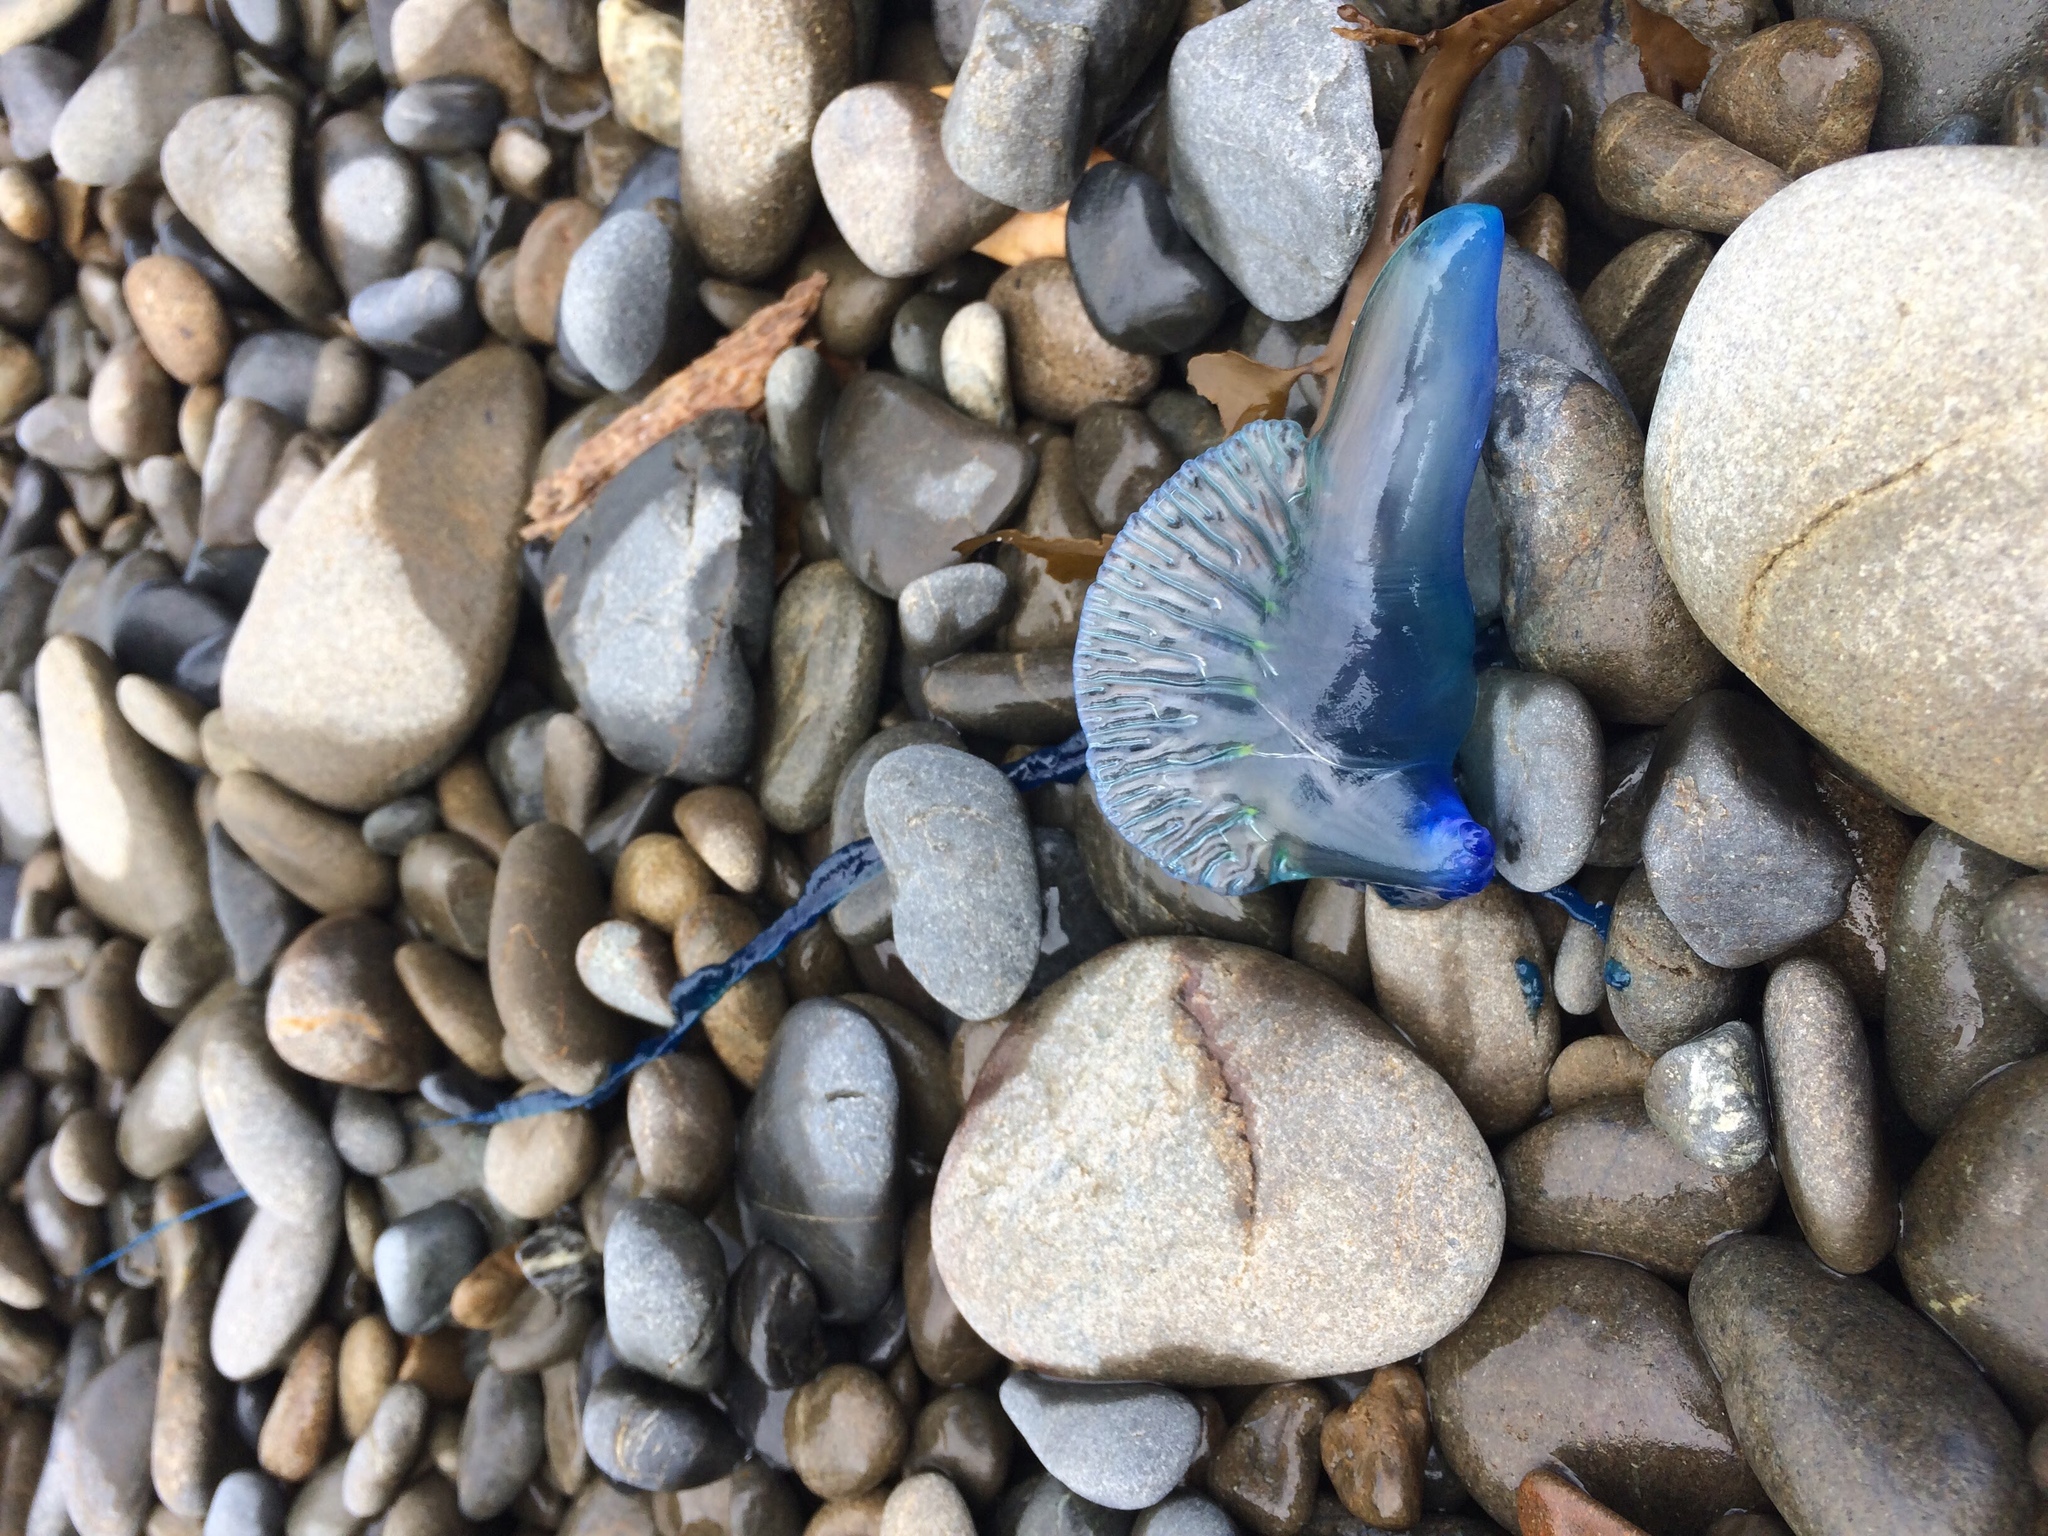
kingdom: Animalia
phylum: Cnidaria
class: Hydrozoa
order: Siphonophorae
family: Physaliidae
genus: Physalia
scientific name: Physalia physalis
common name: Portuguese man-of-war
